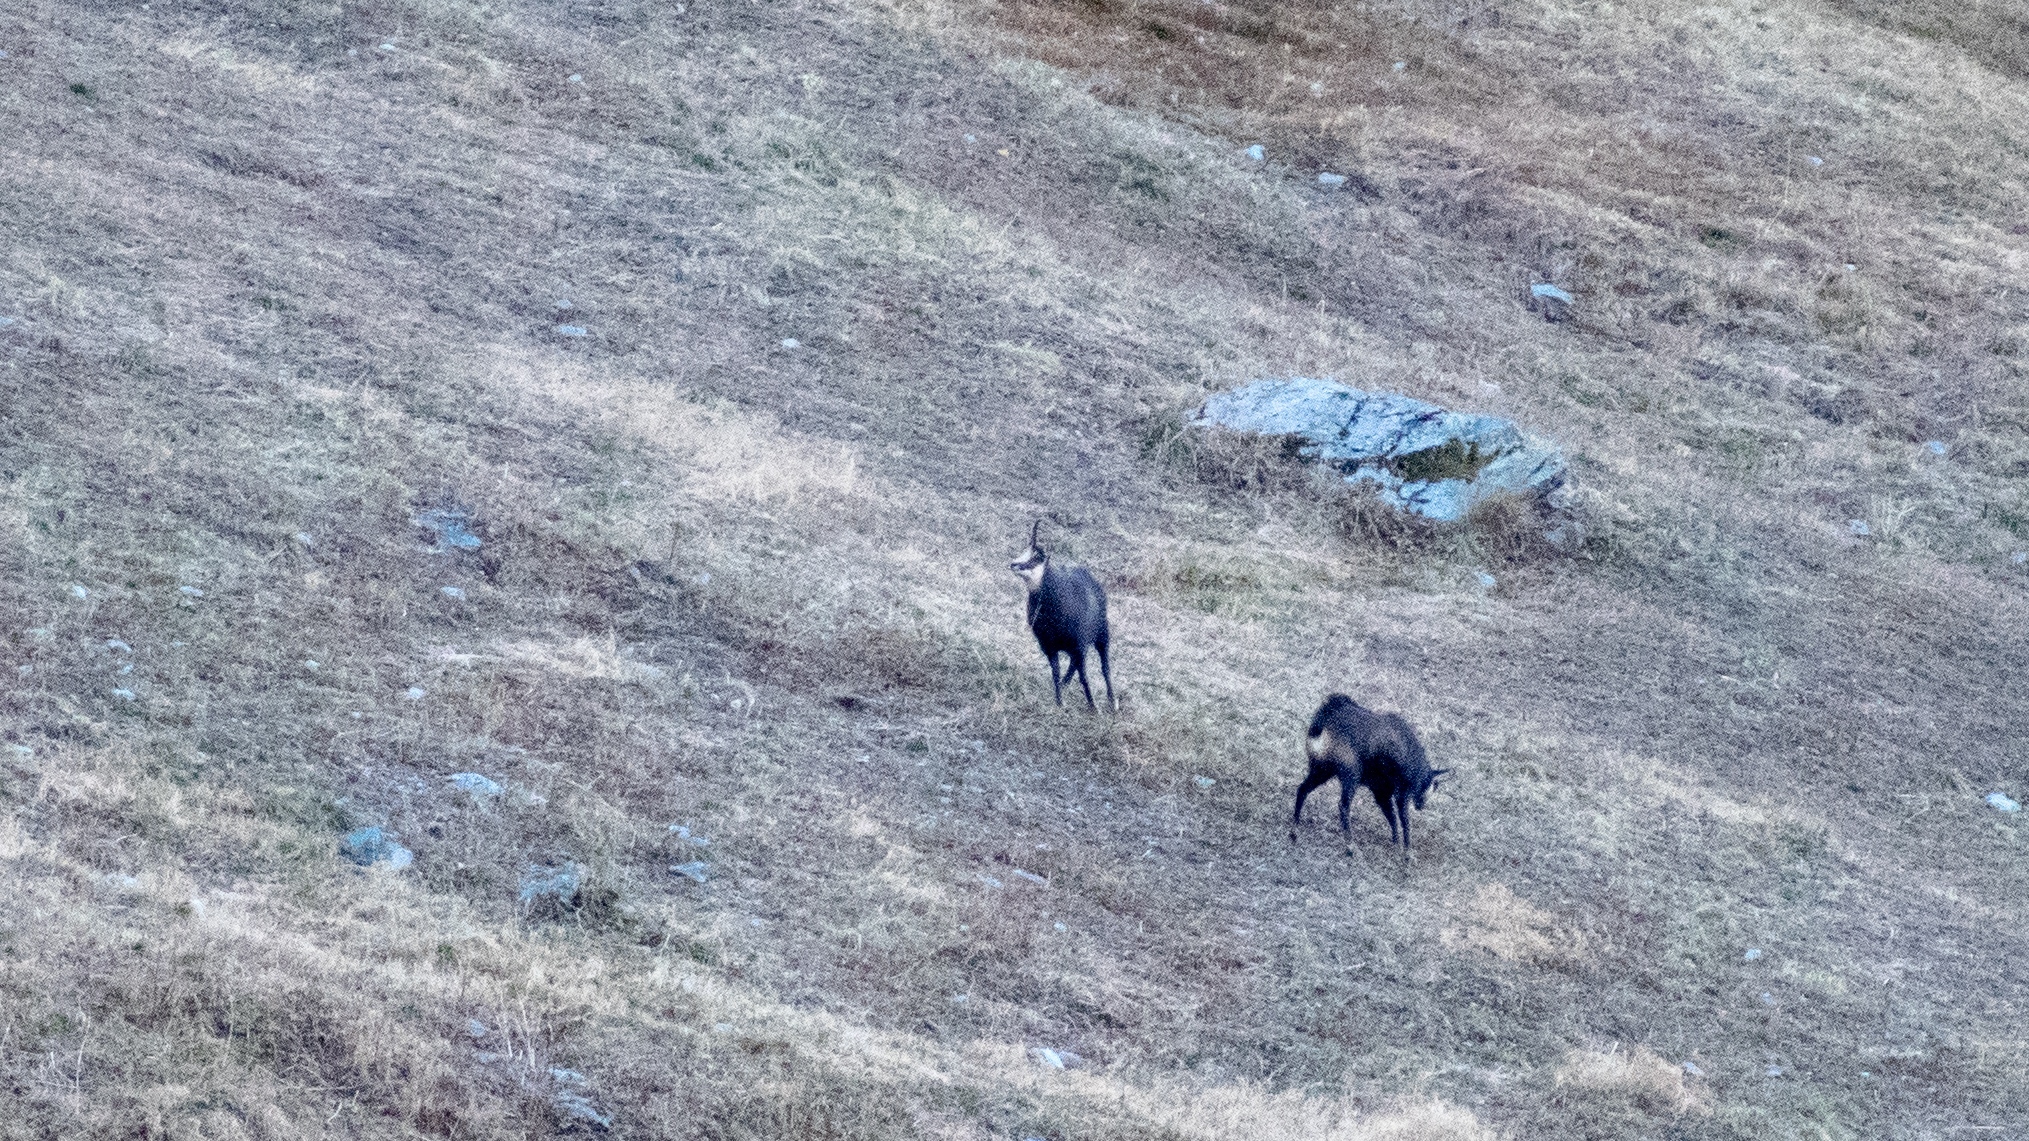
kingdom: Animalia
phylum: Chordata
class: Mammalia
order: Artiodactyla
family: Bovidae
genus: Rupicapra
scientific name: Rupicapra rupicapra
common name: Chamois
